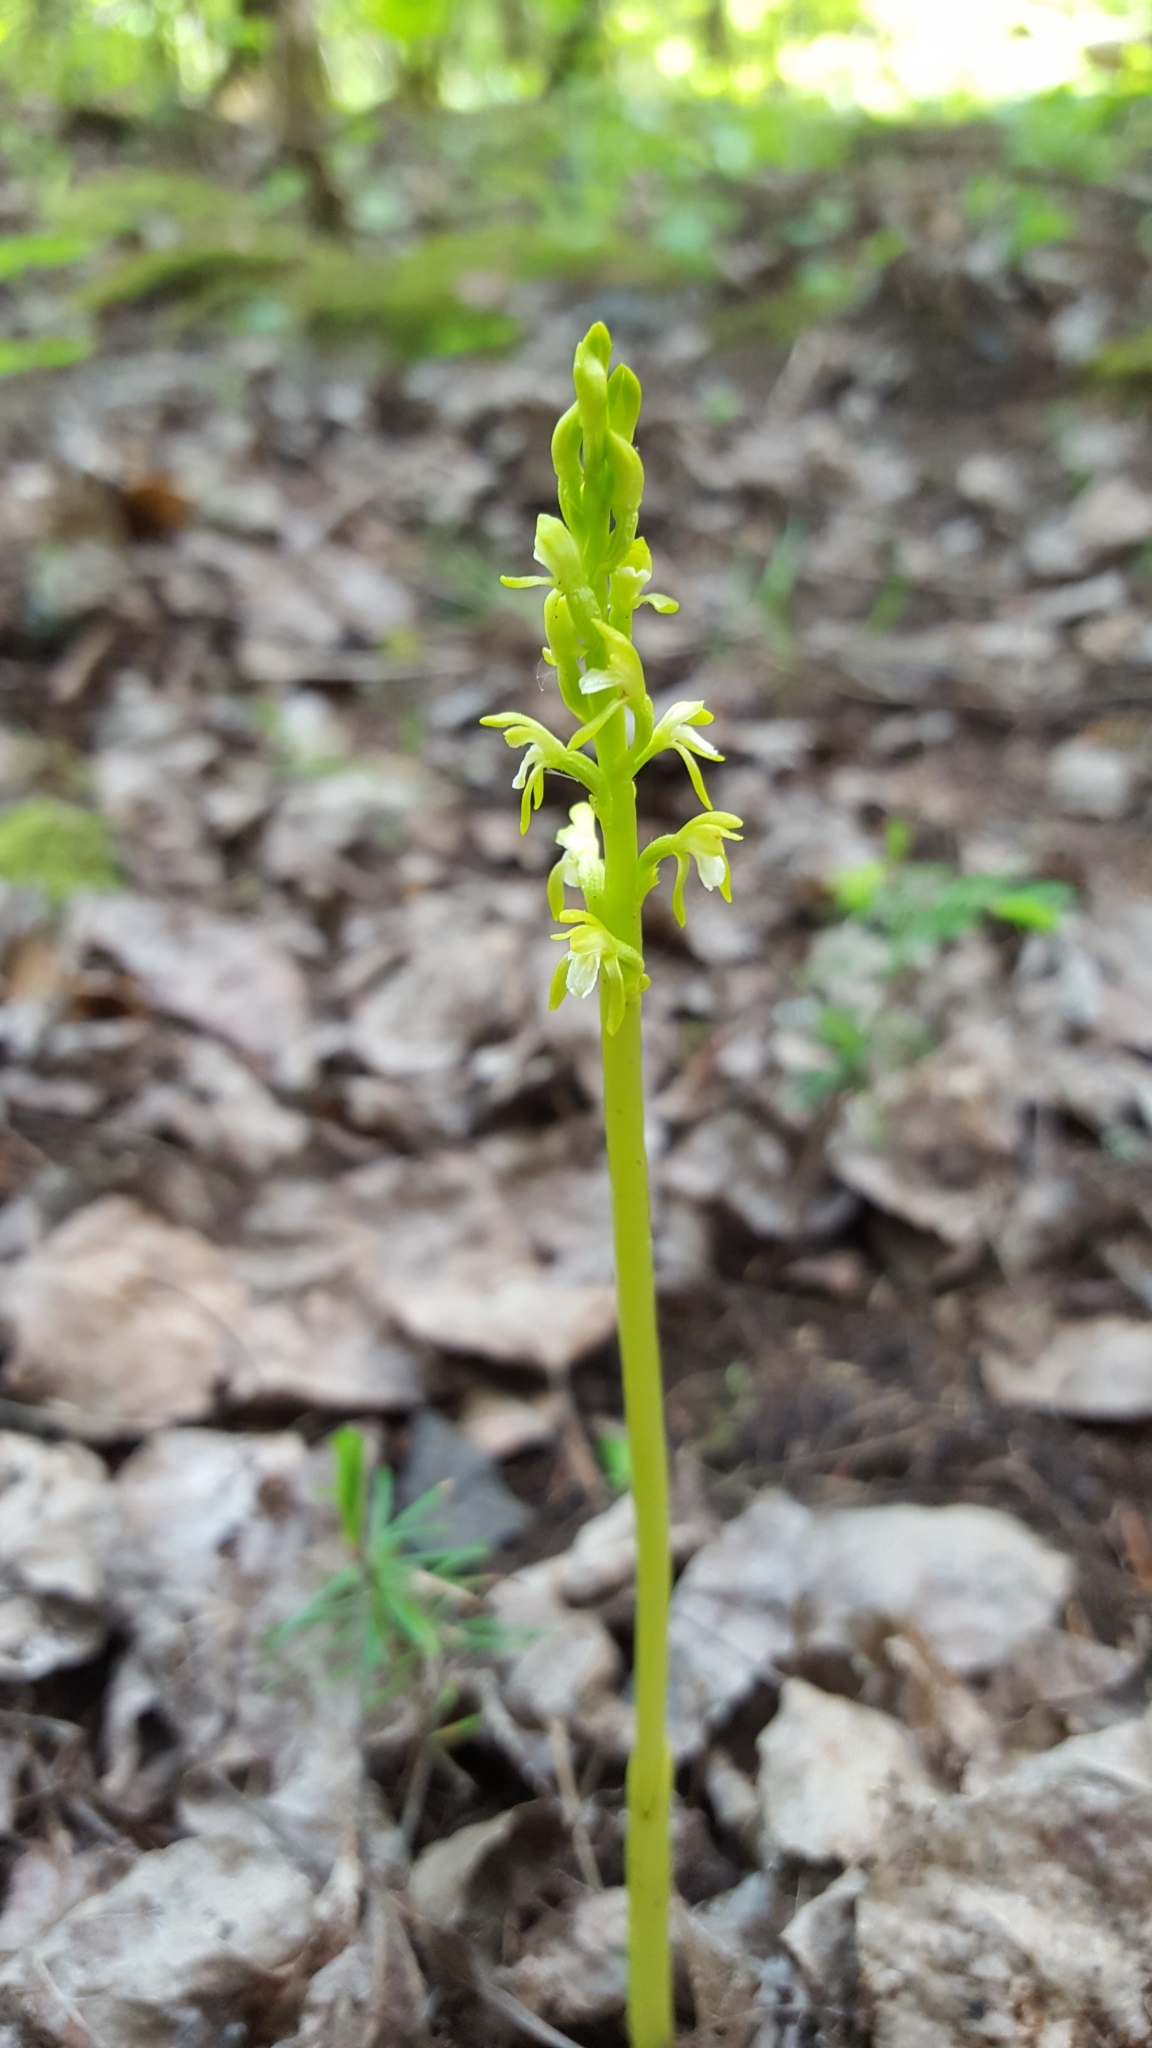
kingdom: Plantae
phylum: Tracheophyta
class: Liliopsida
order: Asparagales
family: Orchidaceae
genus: Corallorhiza
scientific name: Corallorhiza trifida
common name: Yellow coralroot
